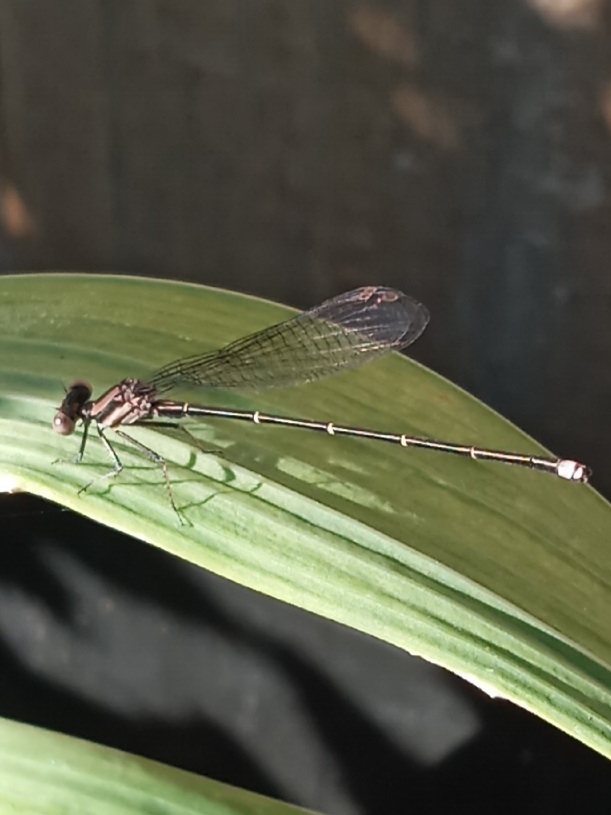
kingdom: Animalia
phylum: Arthropoda
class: Insecta
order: Odonata
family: Coenagrionidae
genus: Argia
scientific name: Argia tibialis
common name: Blue-tipped dancer
